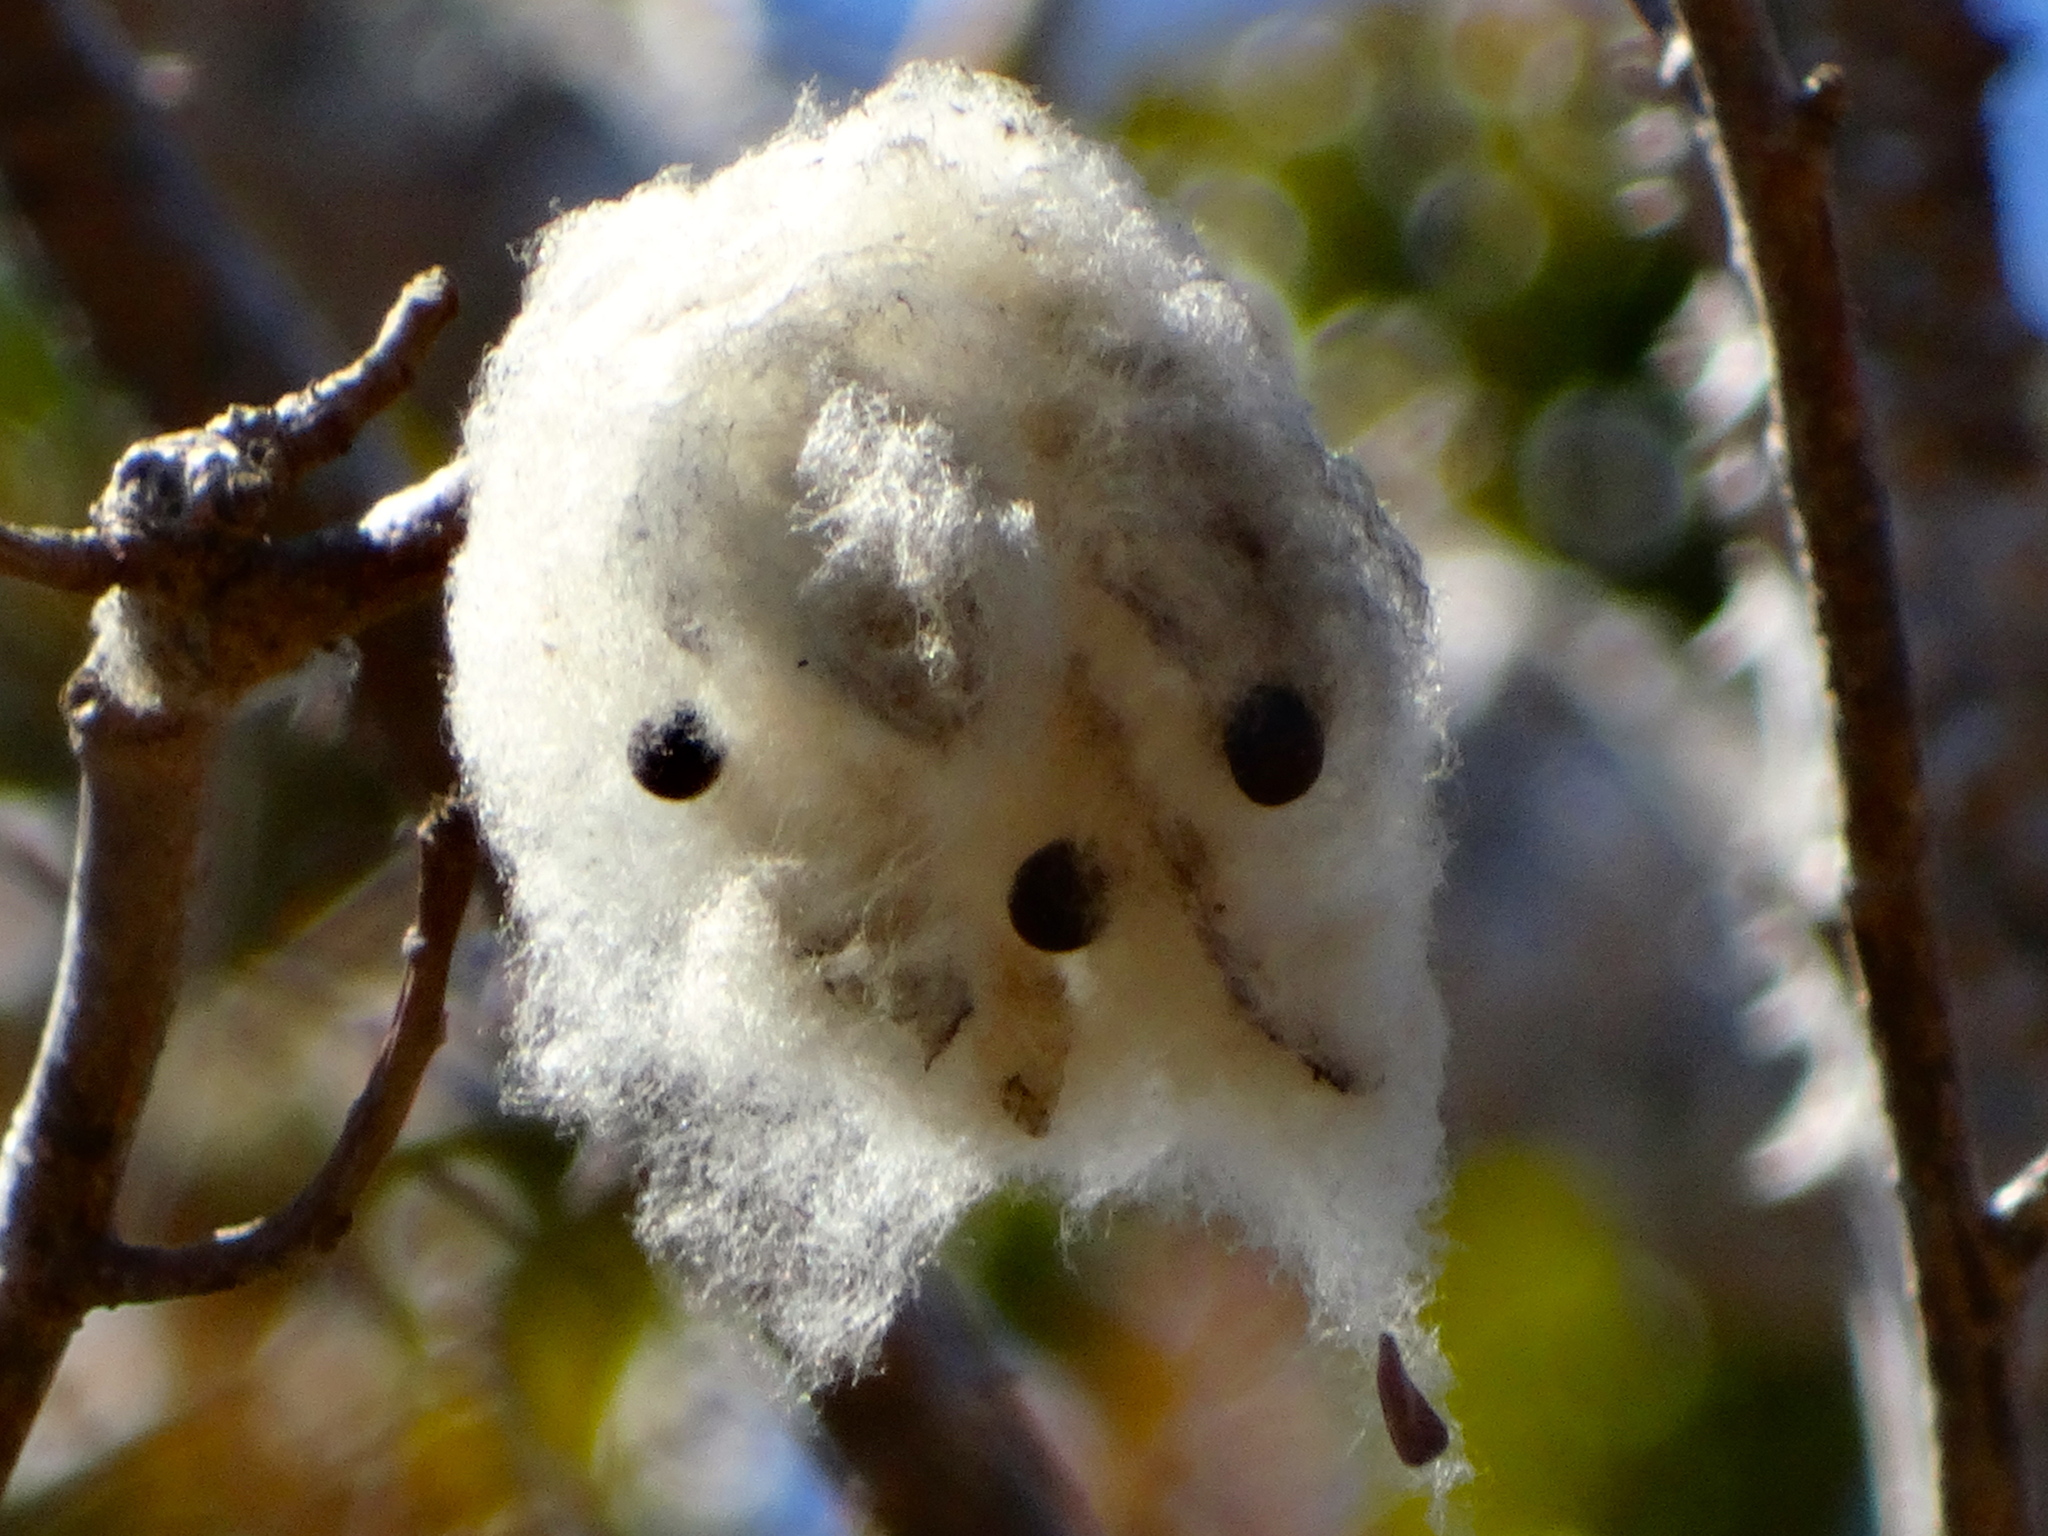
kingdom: Plantae
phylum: Tracheophyta
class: Magnoliopsida
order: Malvales
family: Malvaceae
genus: Ceiba
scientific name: Ceiba aesculifolia
